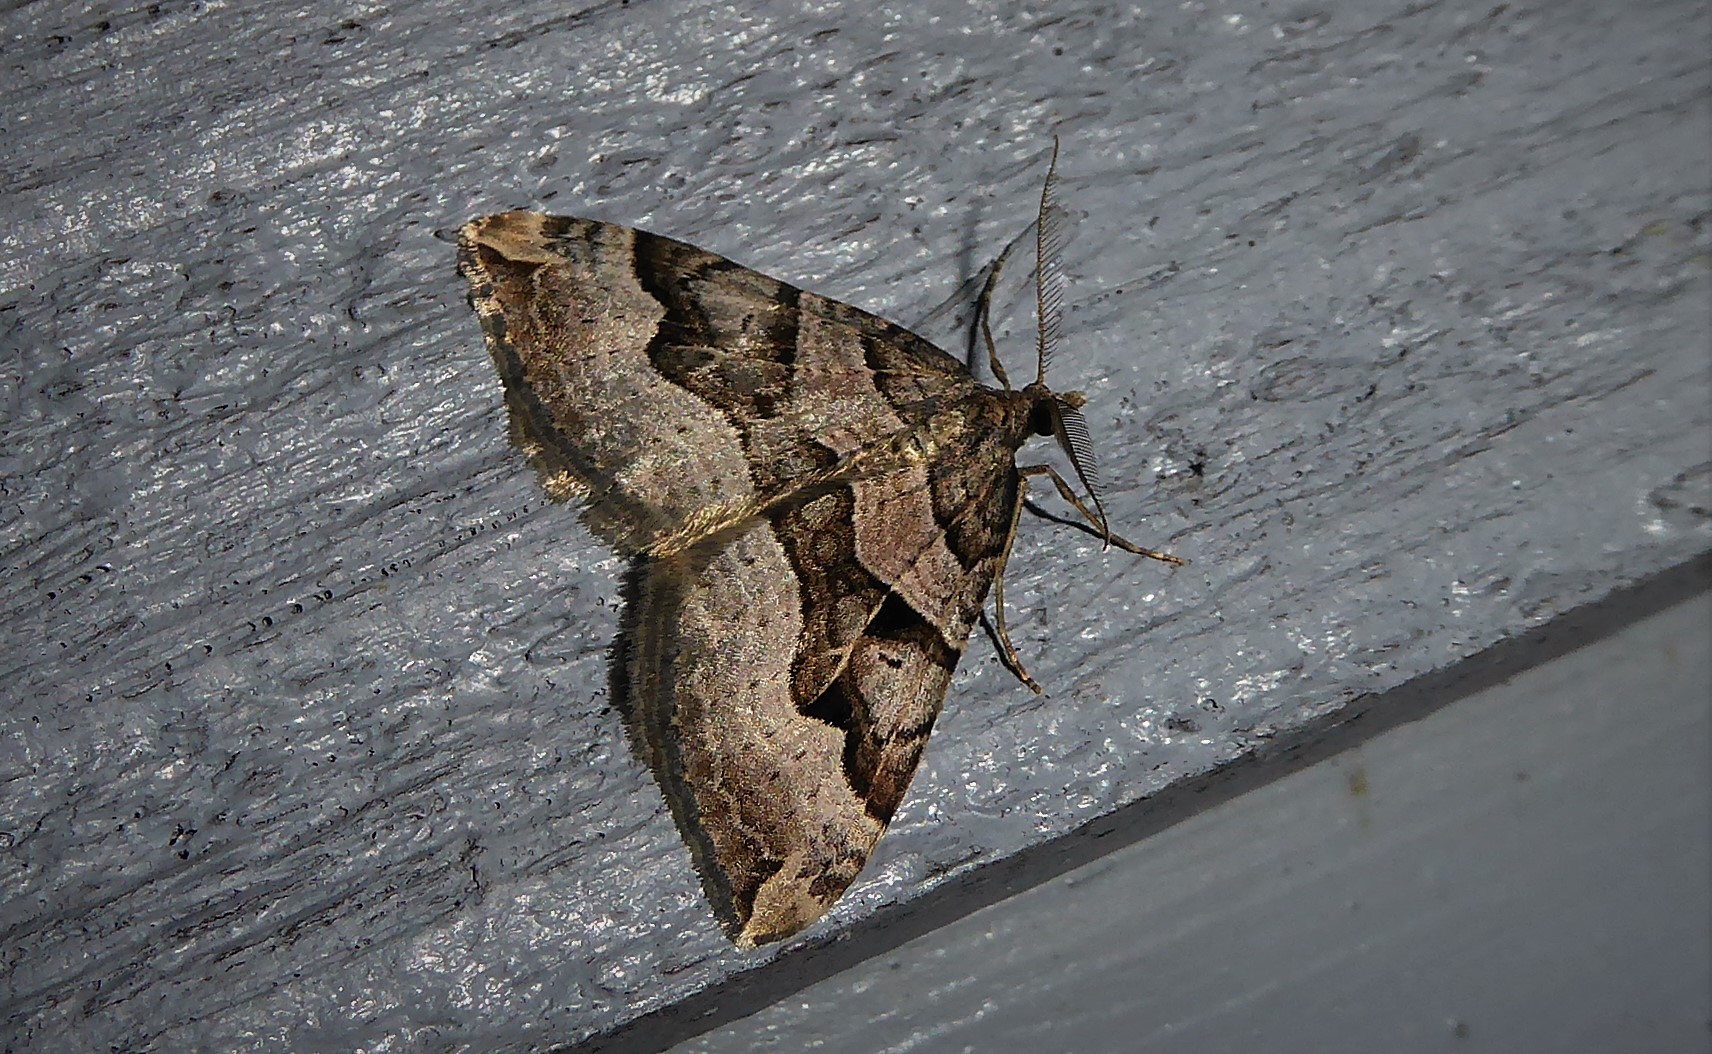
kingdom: Animalia
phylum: Arthropoda
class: Insecta
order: Lepidoptera
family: Geometridae
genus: Xanthorhoe
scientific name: Xanthorhoe semifissata
